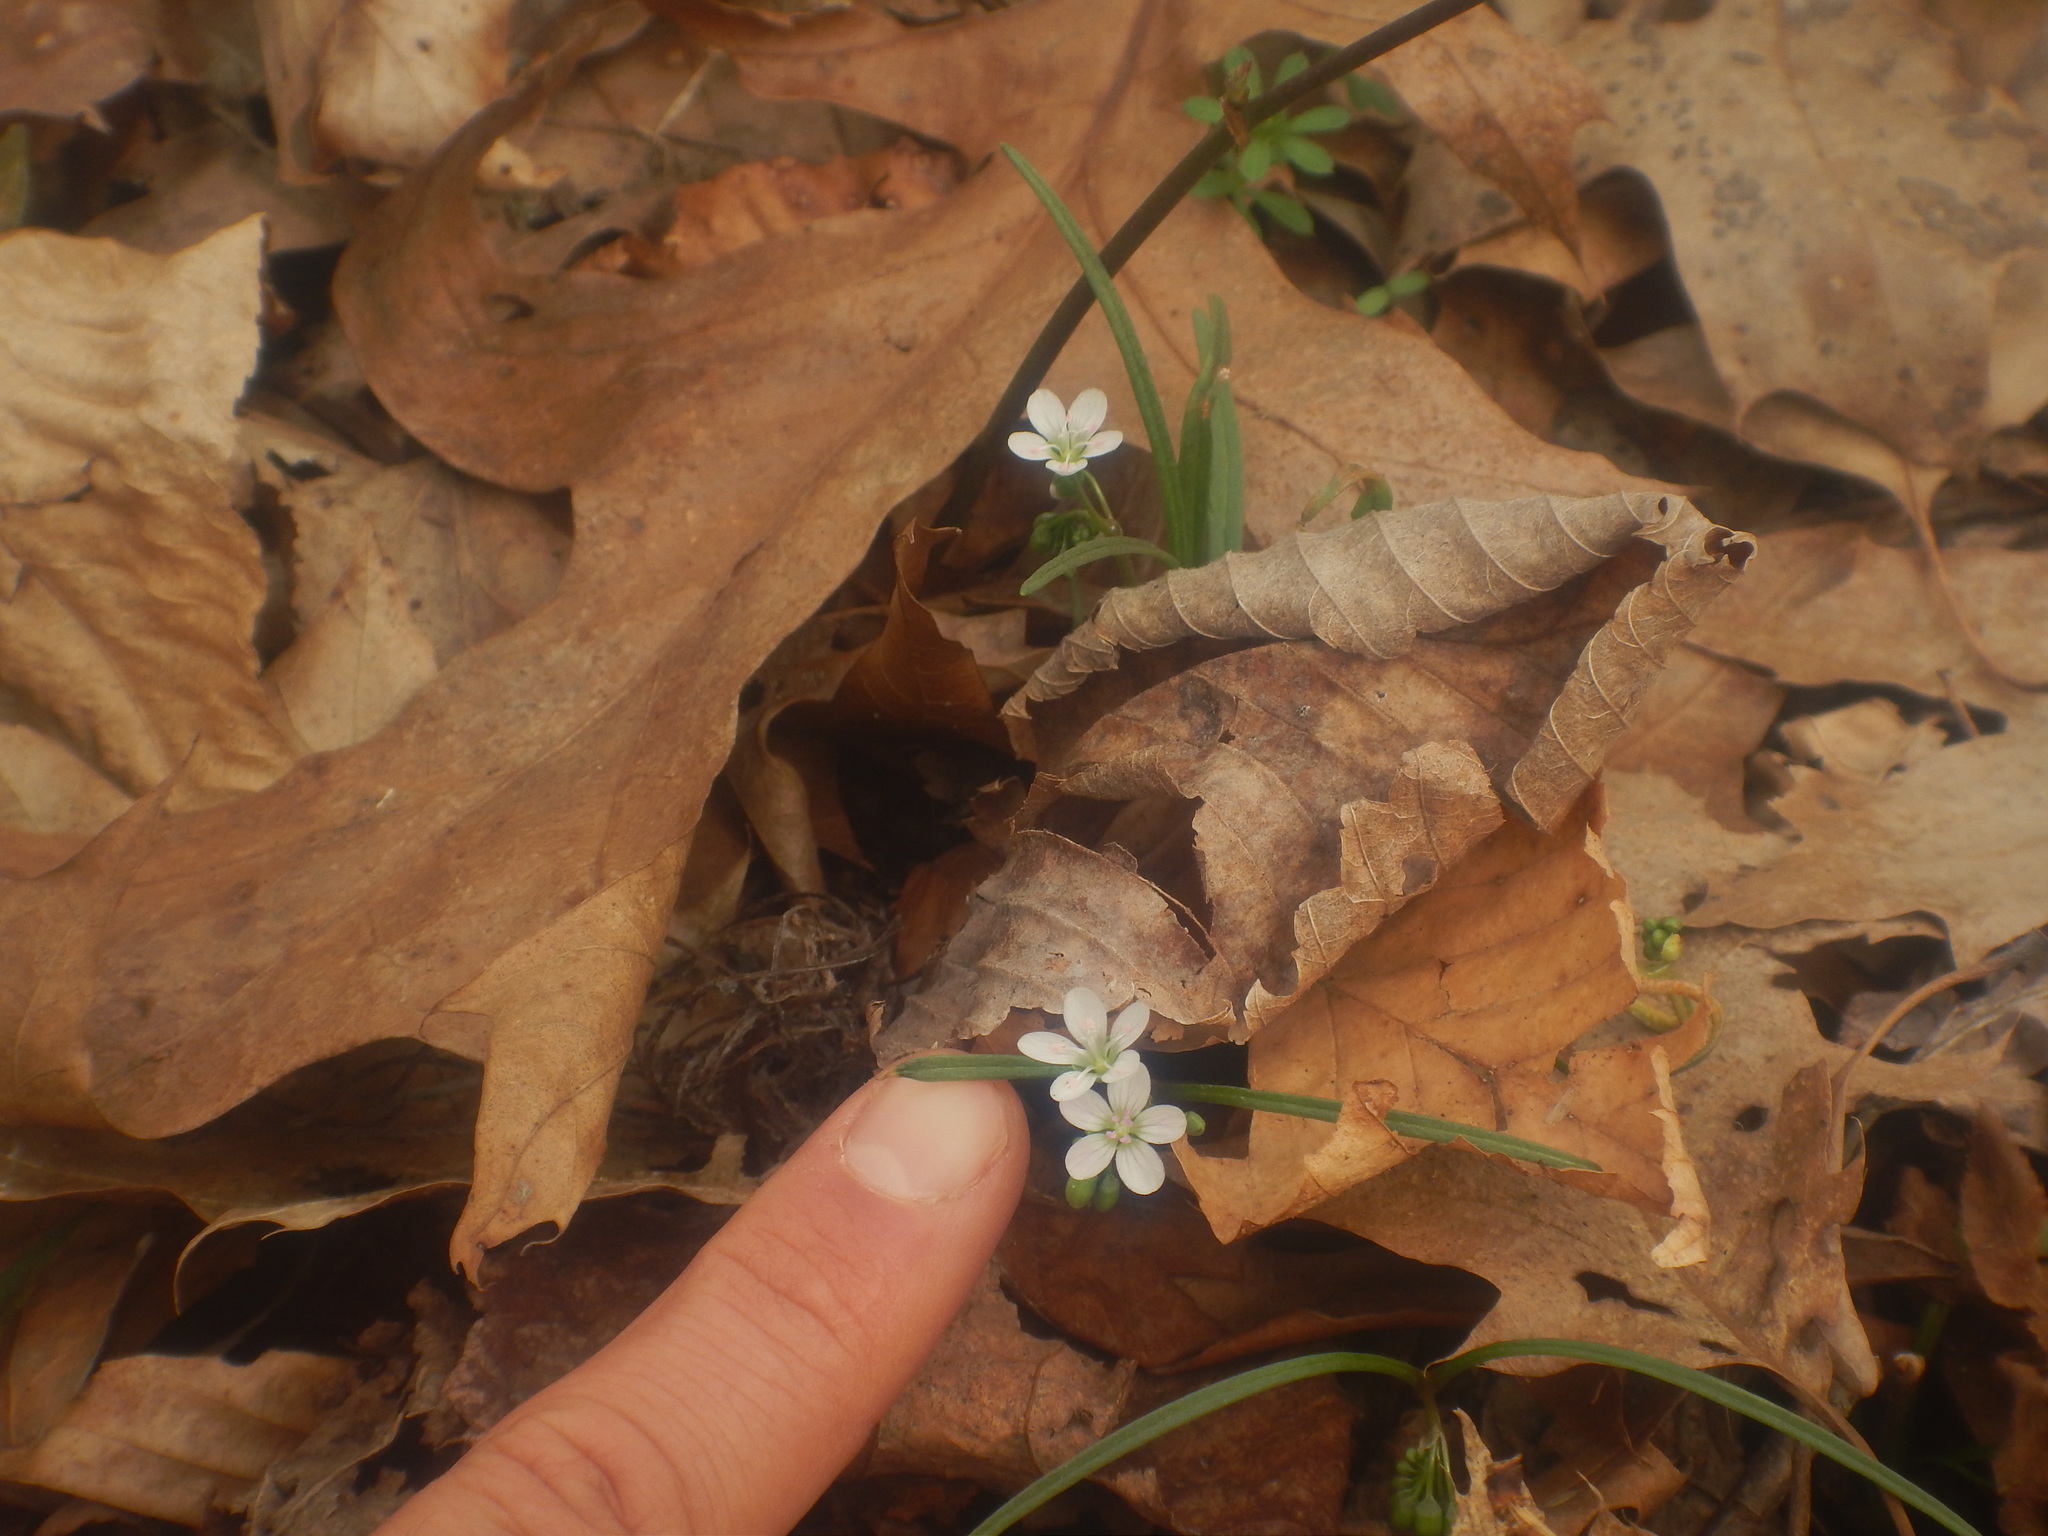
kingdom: Plantae
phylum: Tracheophyta
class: Magnoliopsida
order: Caryophyllales
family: Montiaceae
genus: Claytonia
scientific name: Claytonia virginica
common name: Virginia springbeauty
